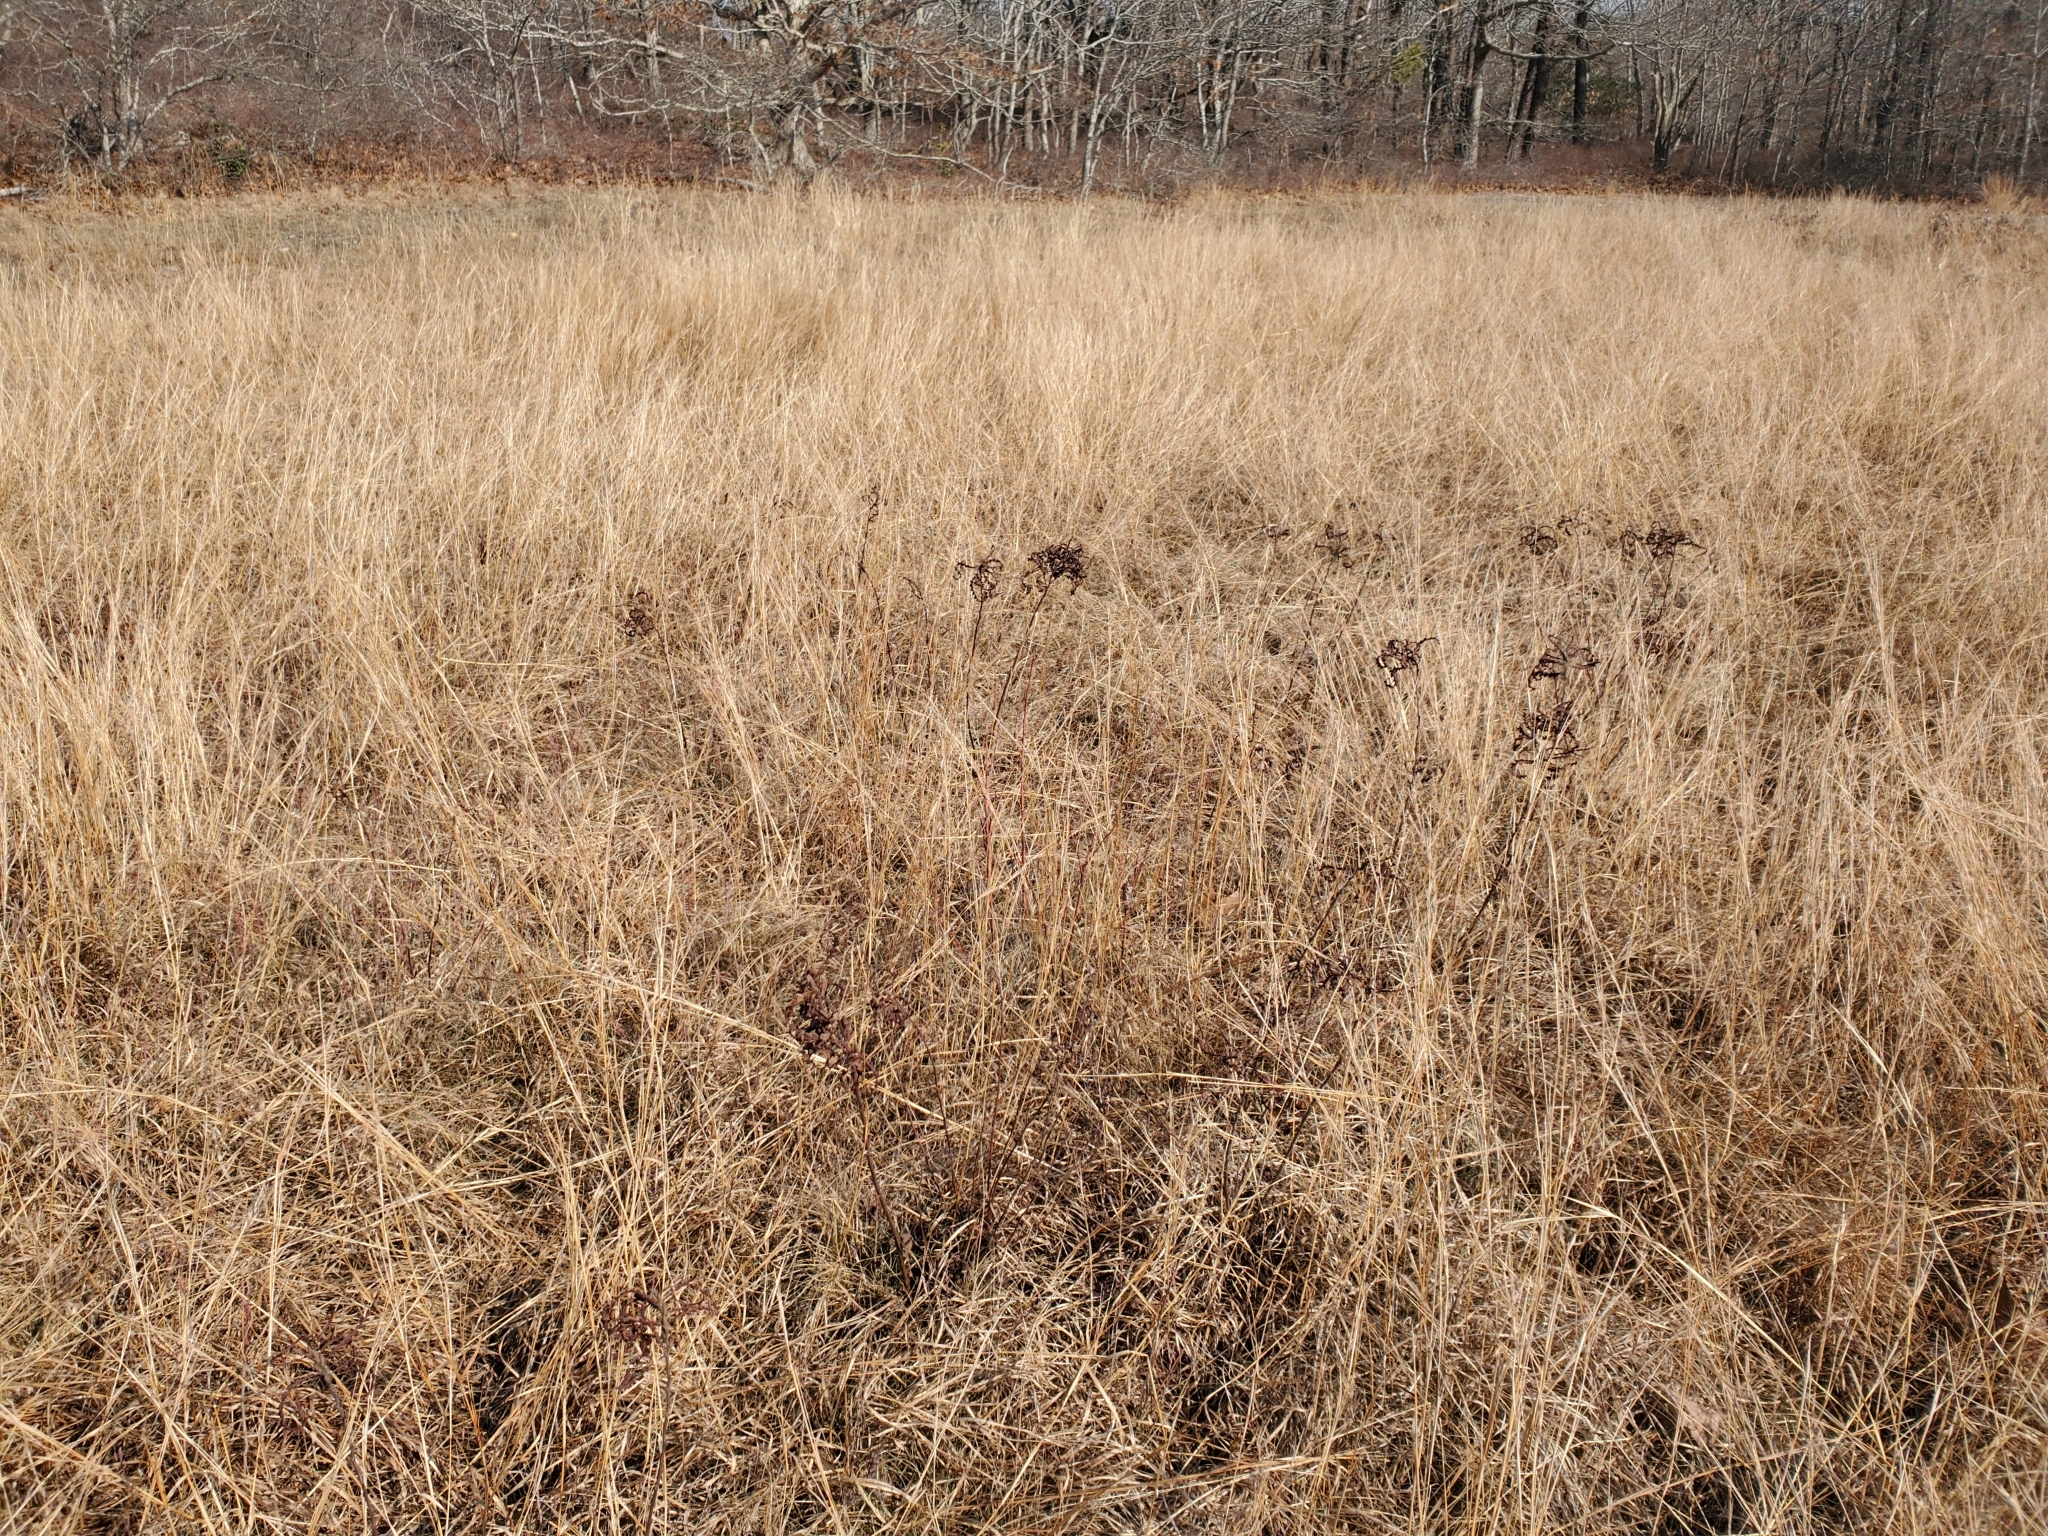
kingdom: Plantae
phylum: Tracheophyta
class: Magnoliopsida
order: Fagales
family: Myricaceae
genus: Comptonia
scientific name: Comptonia peregrina
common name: Sweet-fern
